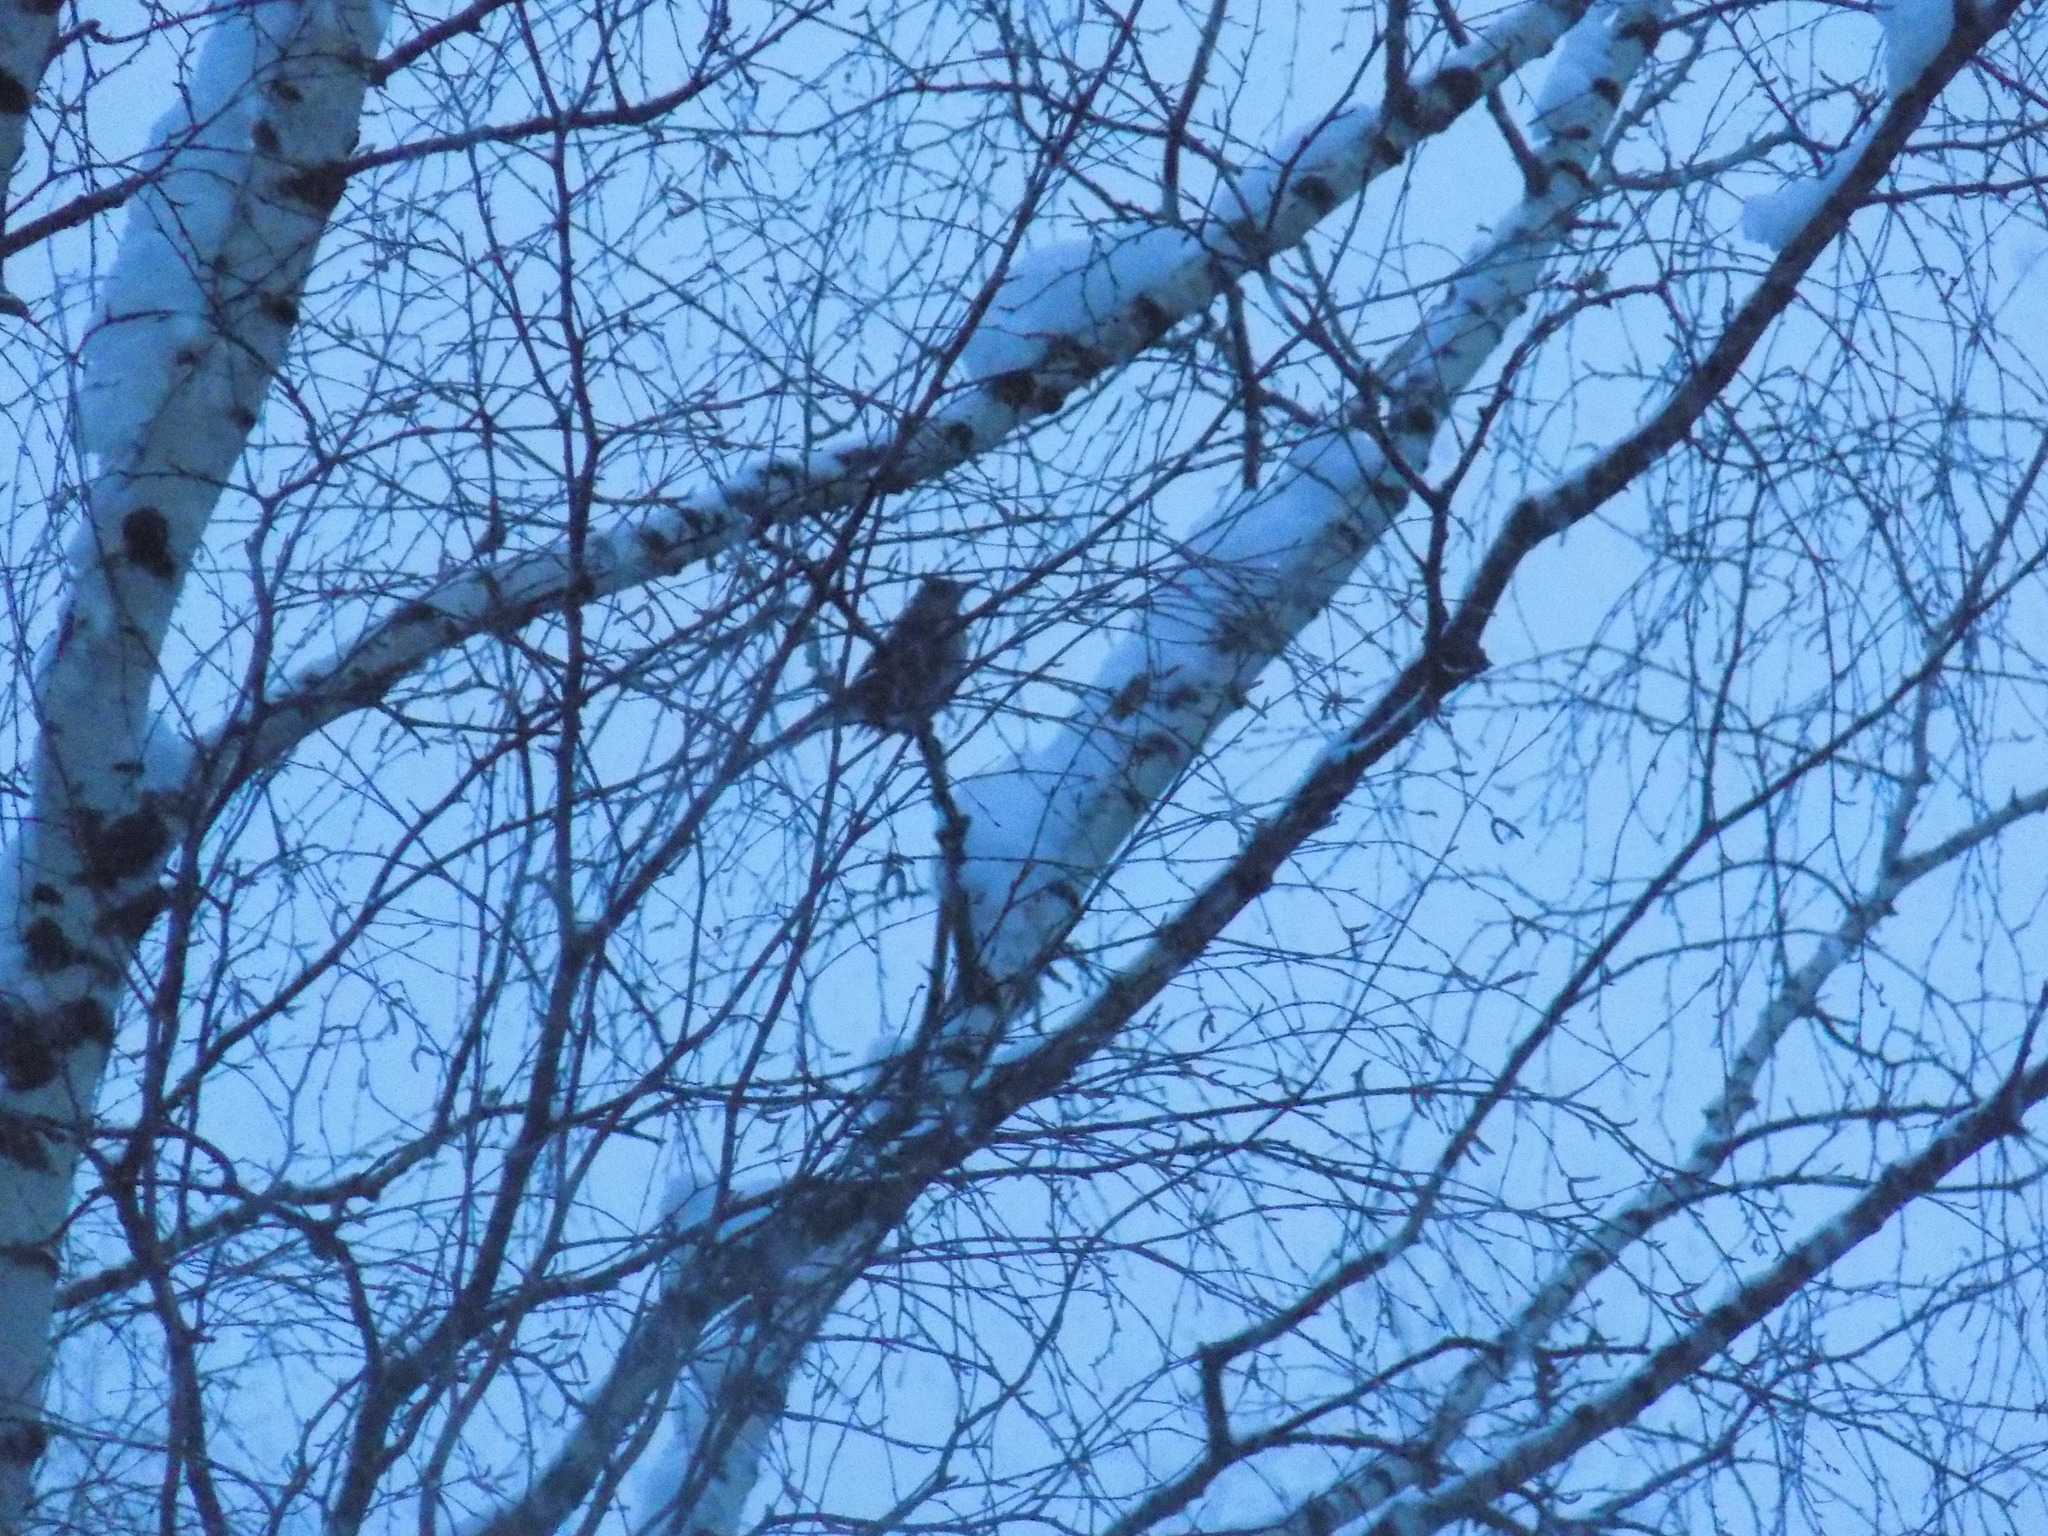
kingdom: Animalia
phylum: Chordata
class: Aves
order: Passeriformes
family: Turdidae
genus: Turdus
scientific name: Turdus atrogularis
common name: Black-throated thrush
